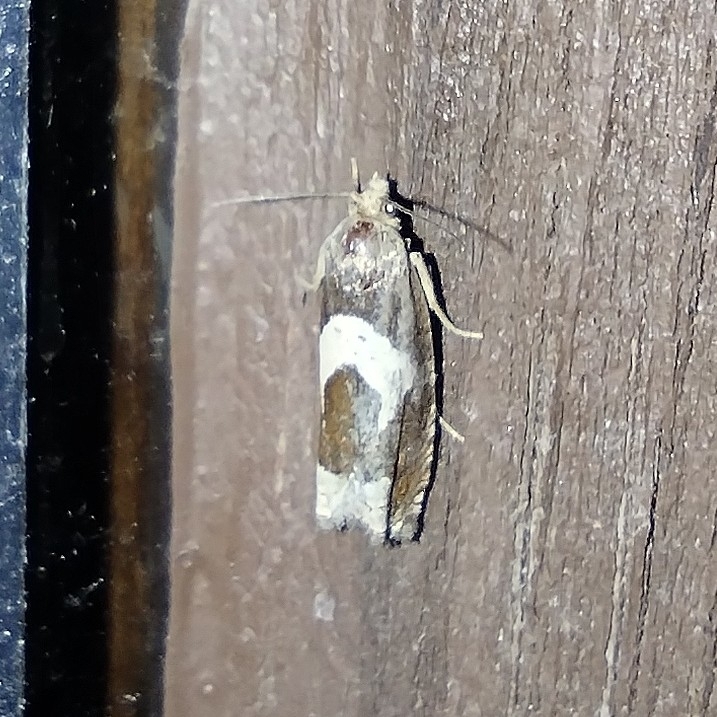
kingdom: Animalia
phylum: Arthropoda
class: Insecta
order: Lepidoptera
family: Tortricidae
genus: Epiblema
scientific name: Epiblema foenella
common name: White-foot bell
